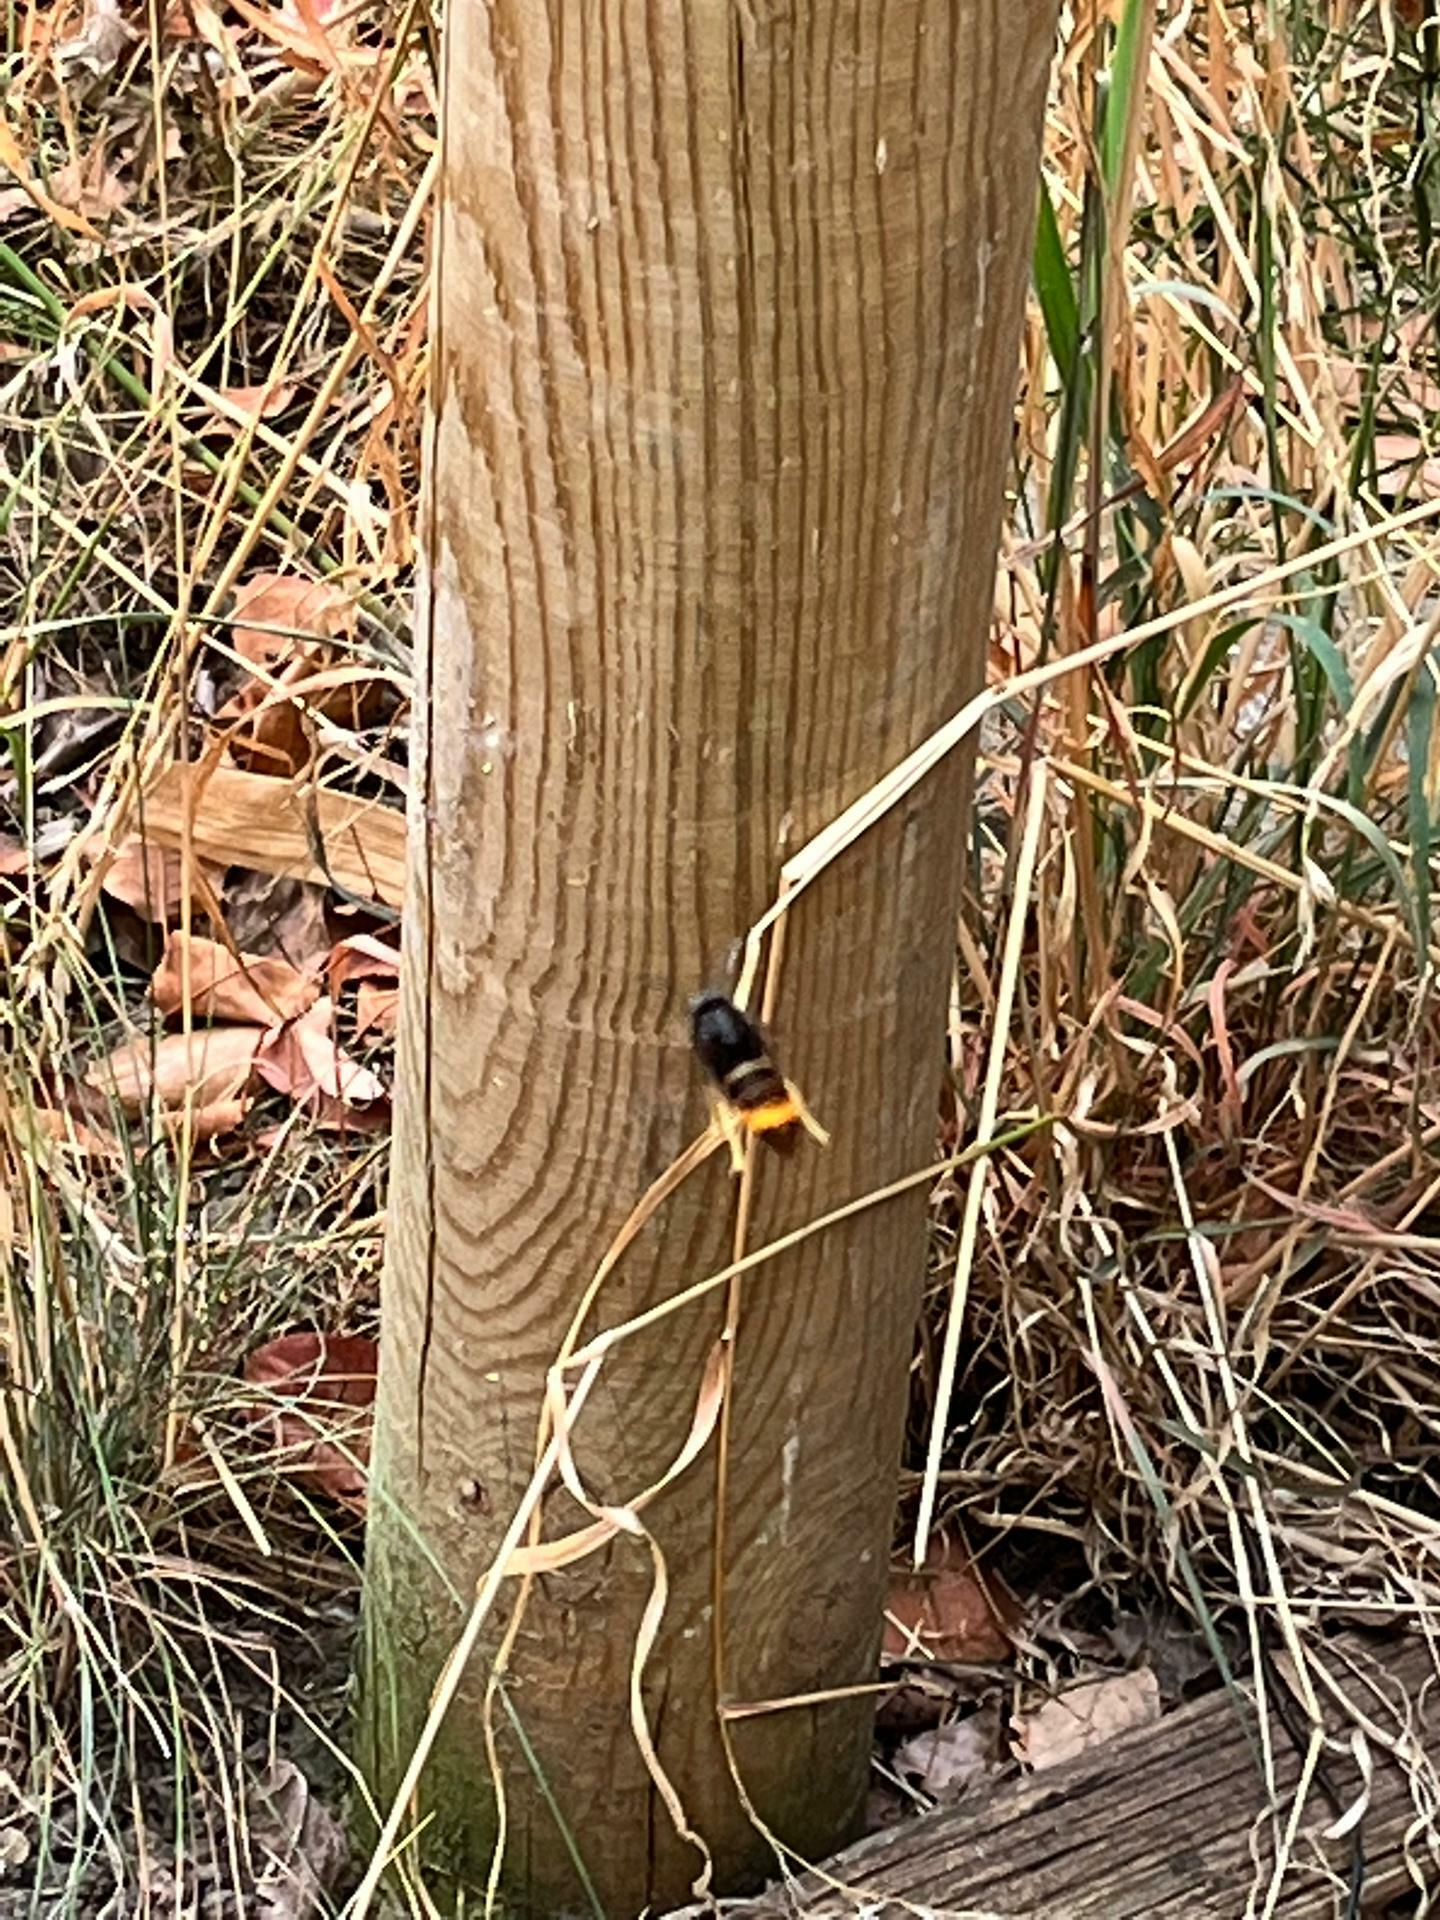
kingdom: Animalia
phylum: Arthropoda
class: Insecta
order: Hymenoptera
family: Vespidae
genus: Vespa
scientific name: Vespa velutina
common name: Asian hornet
